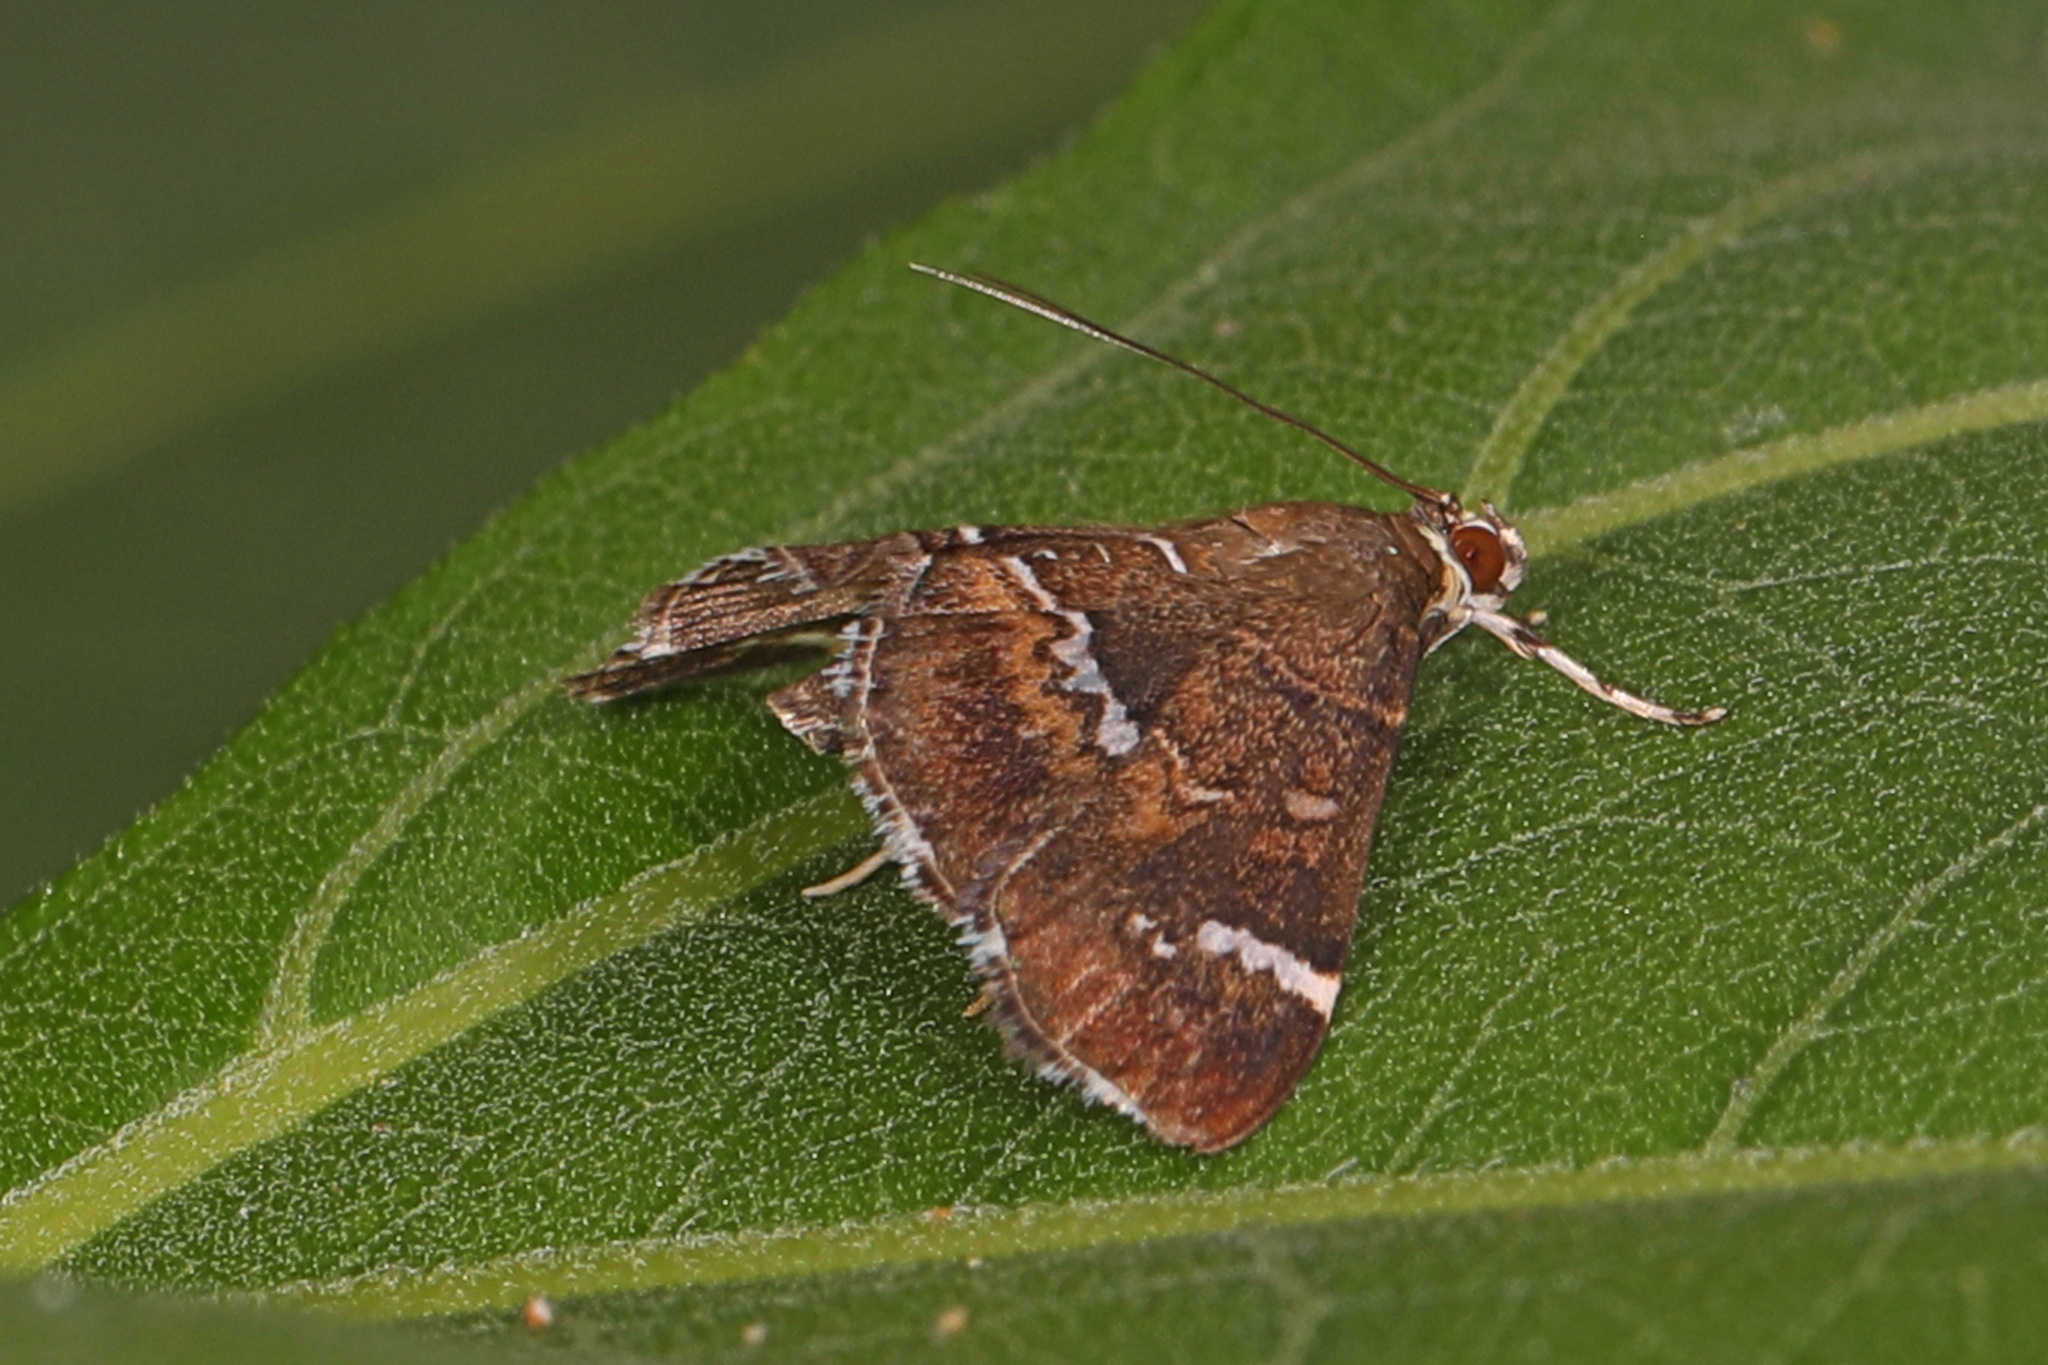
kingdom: Animalia
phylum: Arthropoda
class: Insecta
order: Lepidoptera
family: Crambidae
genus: Hymenia
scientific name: Hymenia perspectalis
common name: Spotted beet webworm
